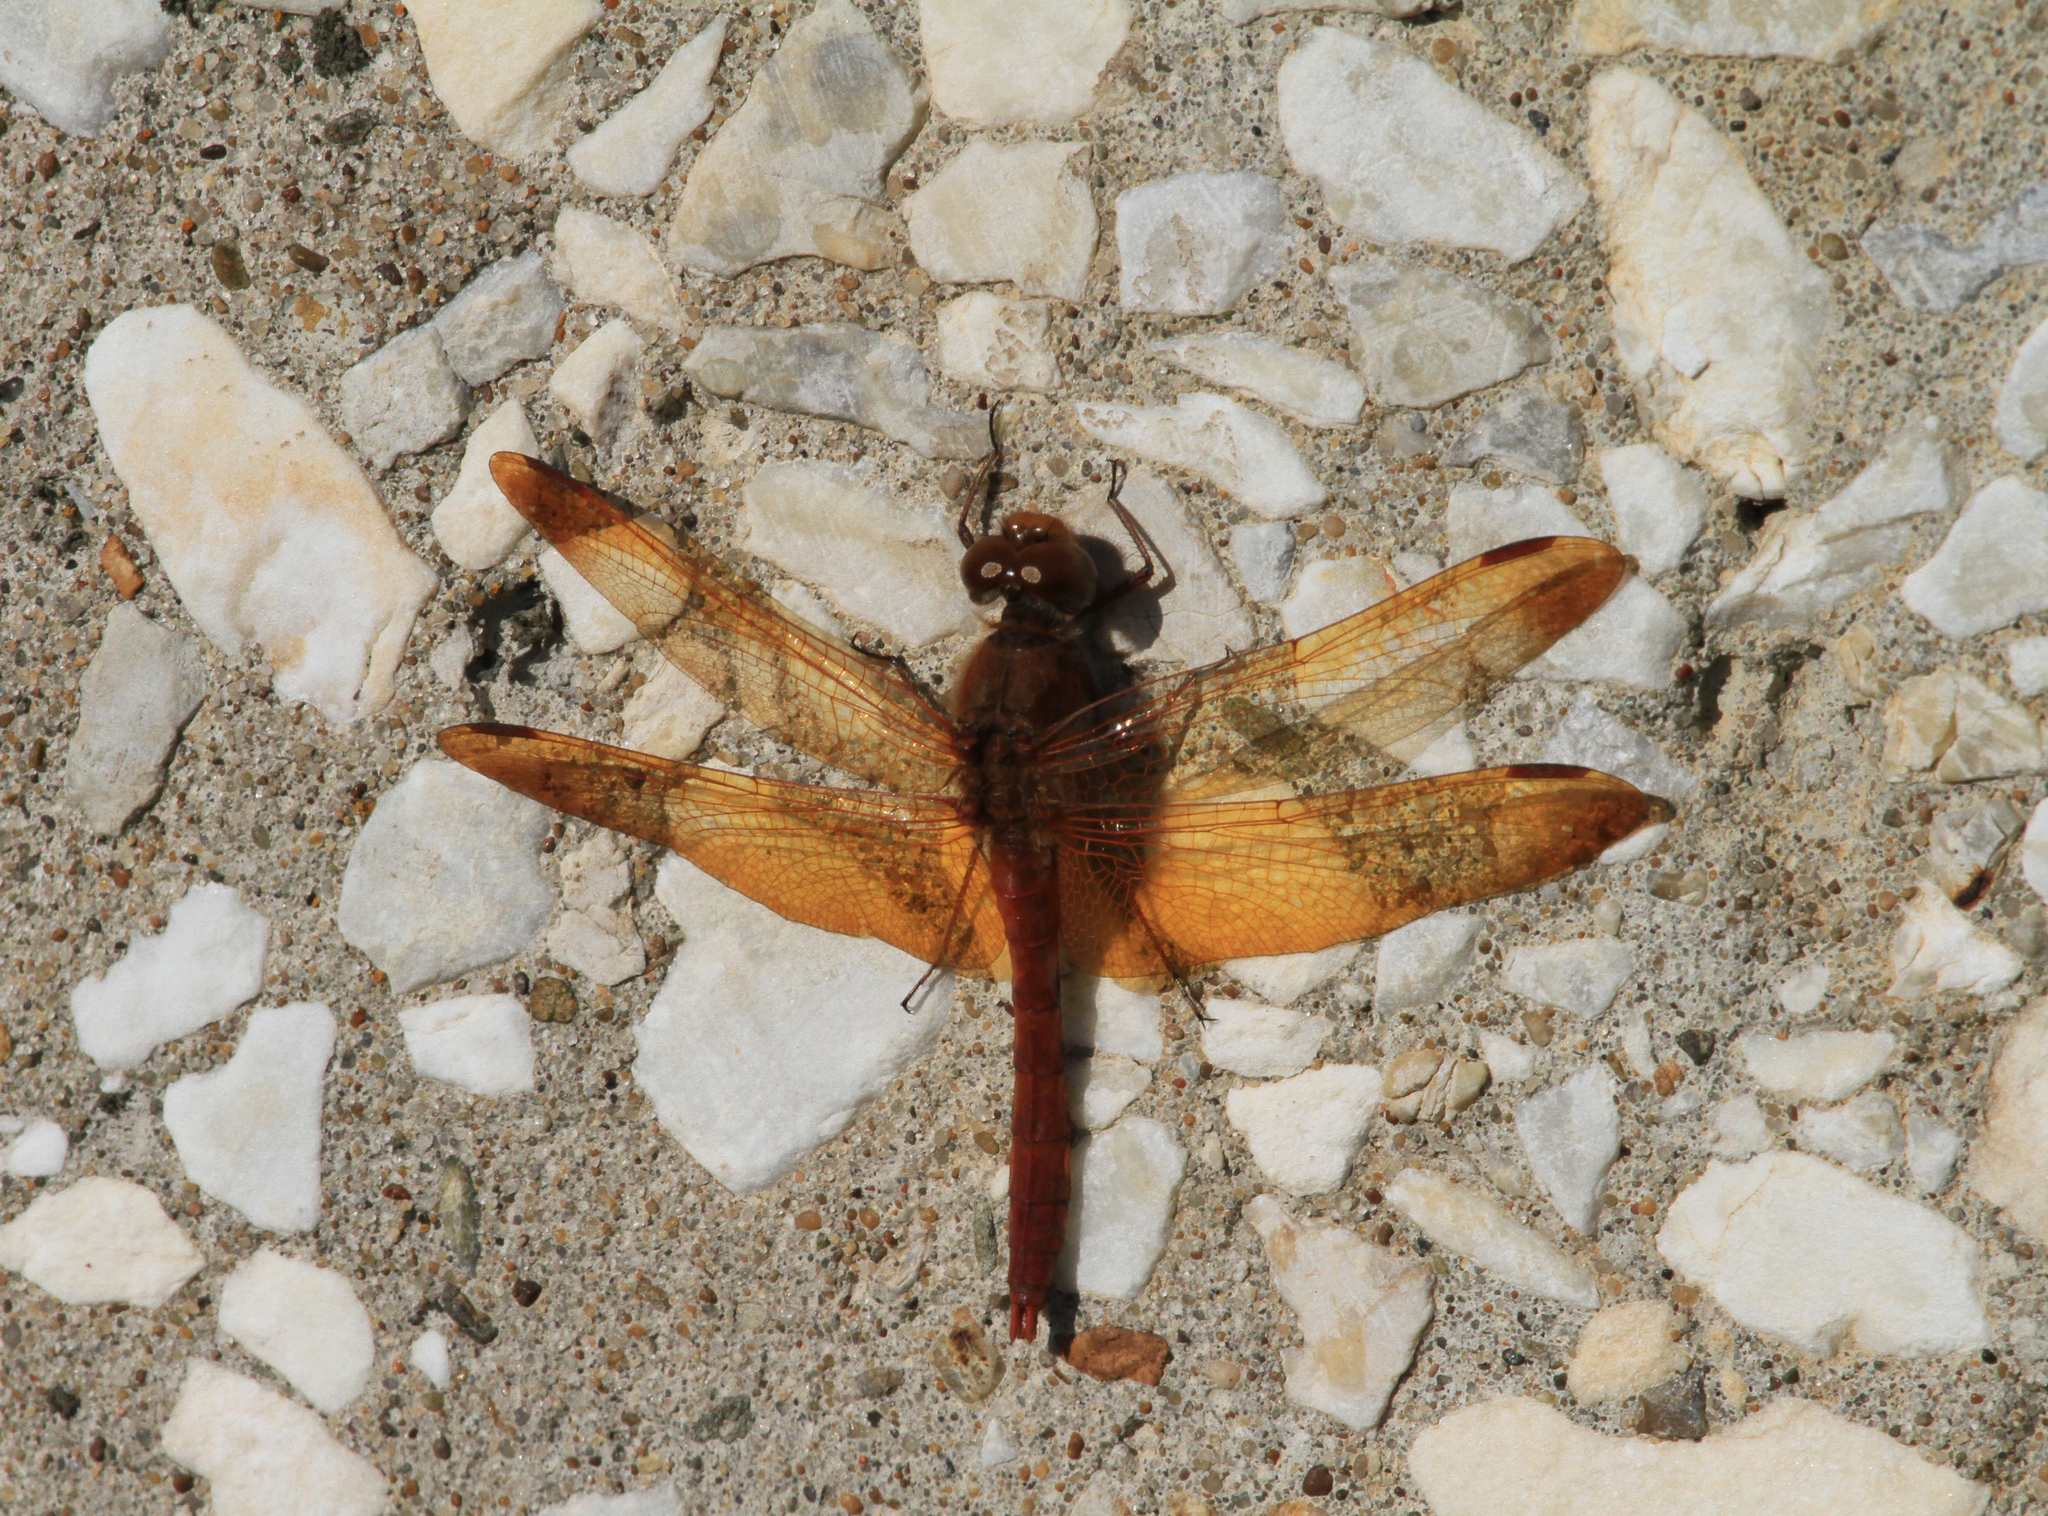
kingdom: Animalia
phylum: Arthropoda
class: Insecta
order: Odonata
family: Libellulidae
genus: Sympetrum
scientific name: Sympetrum croceolum
